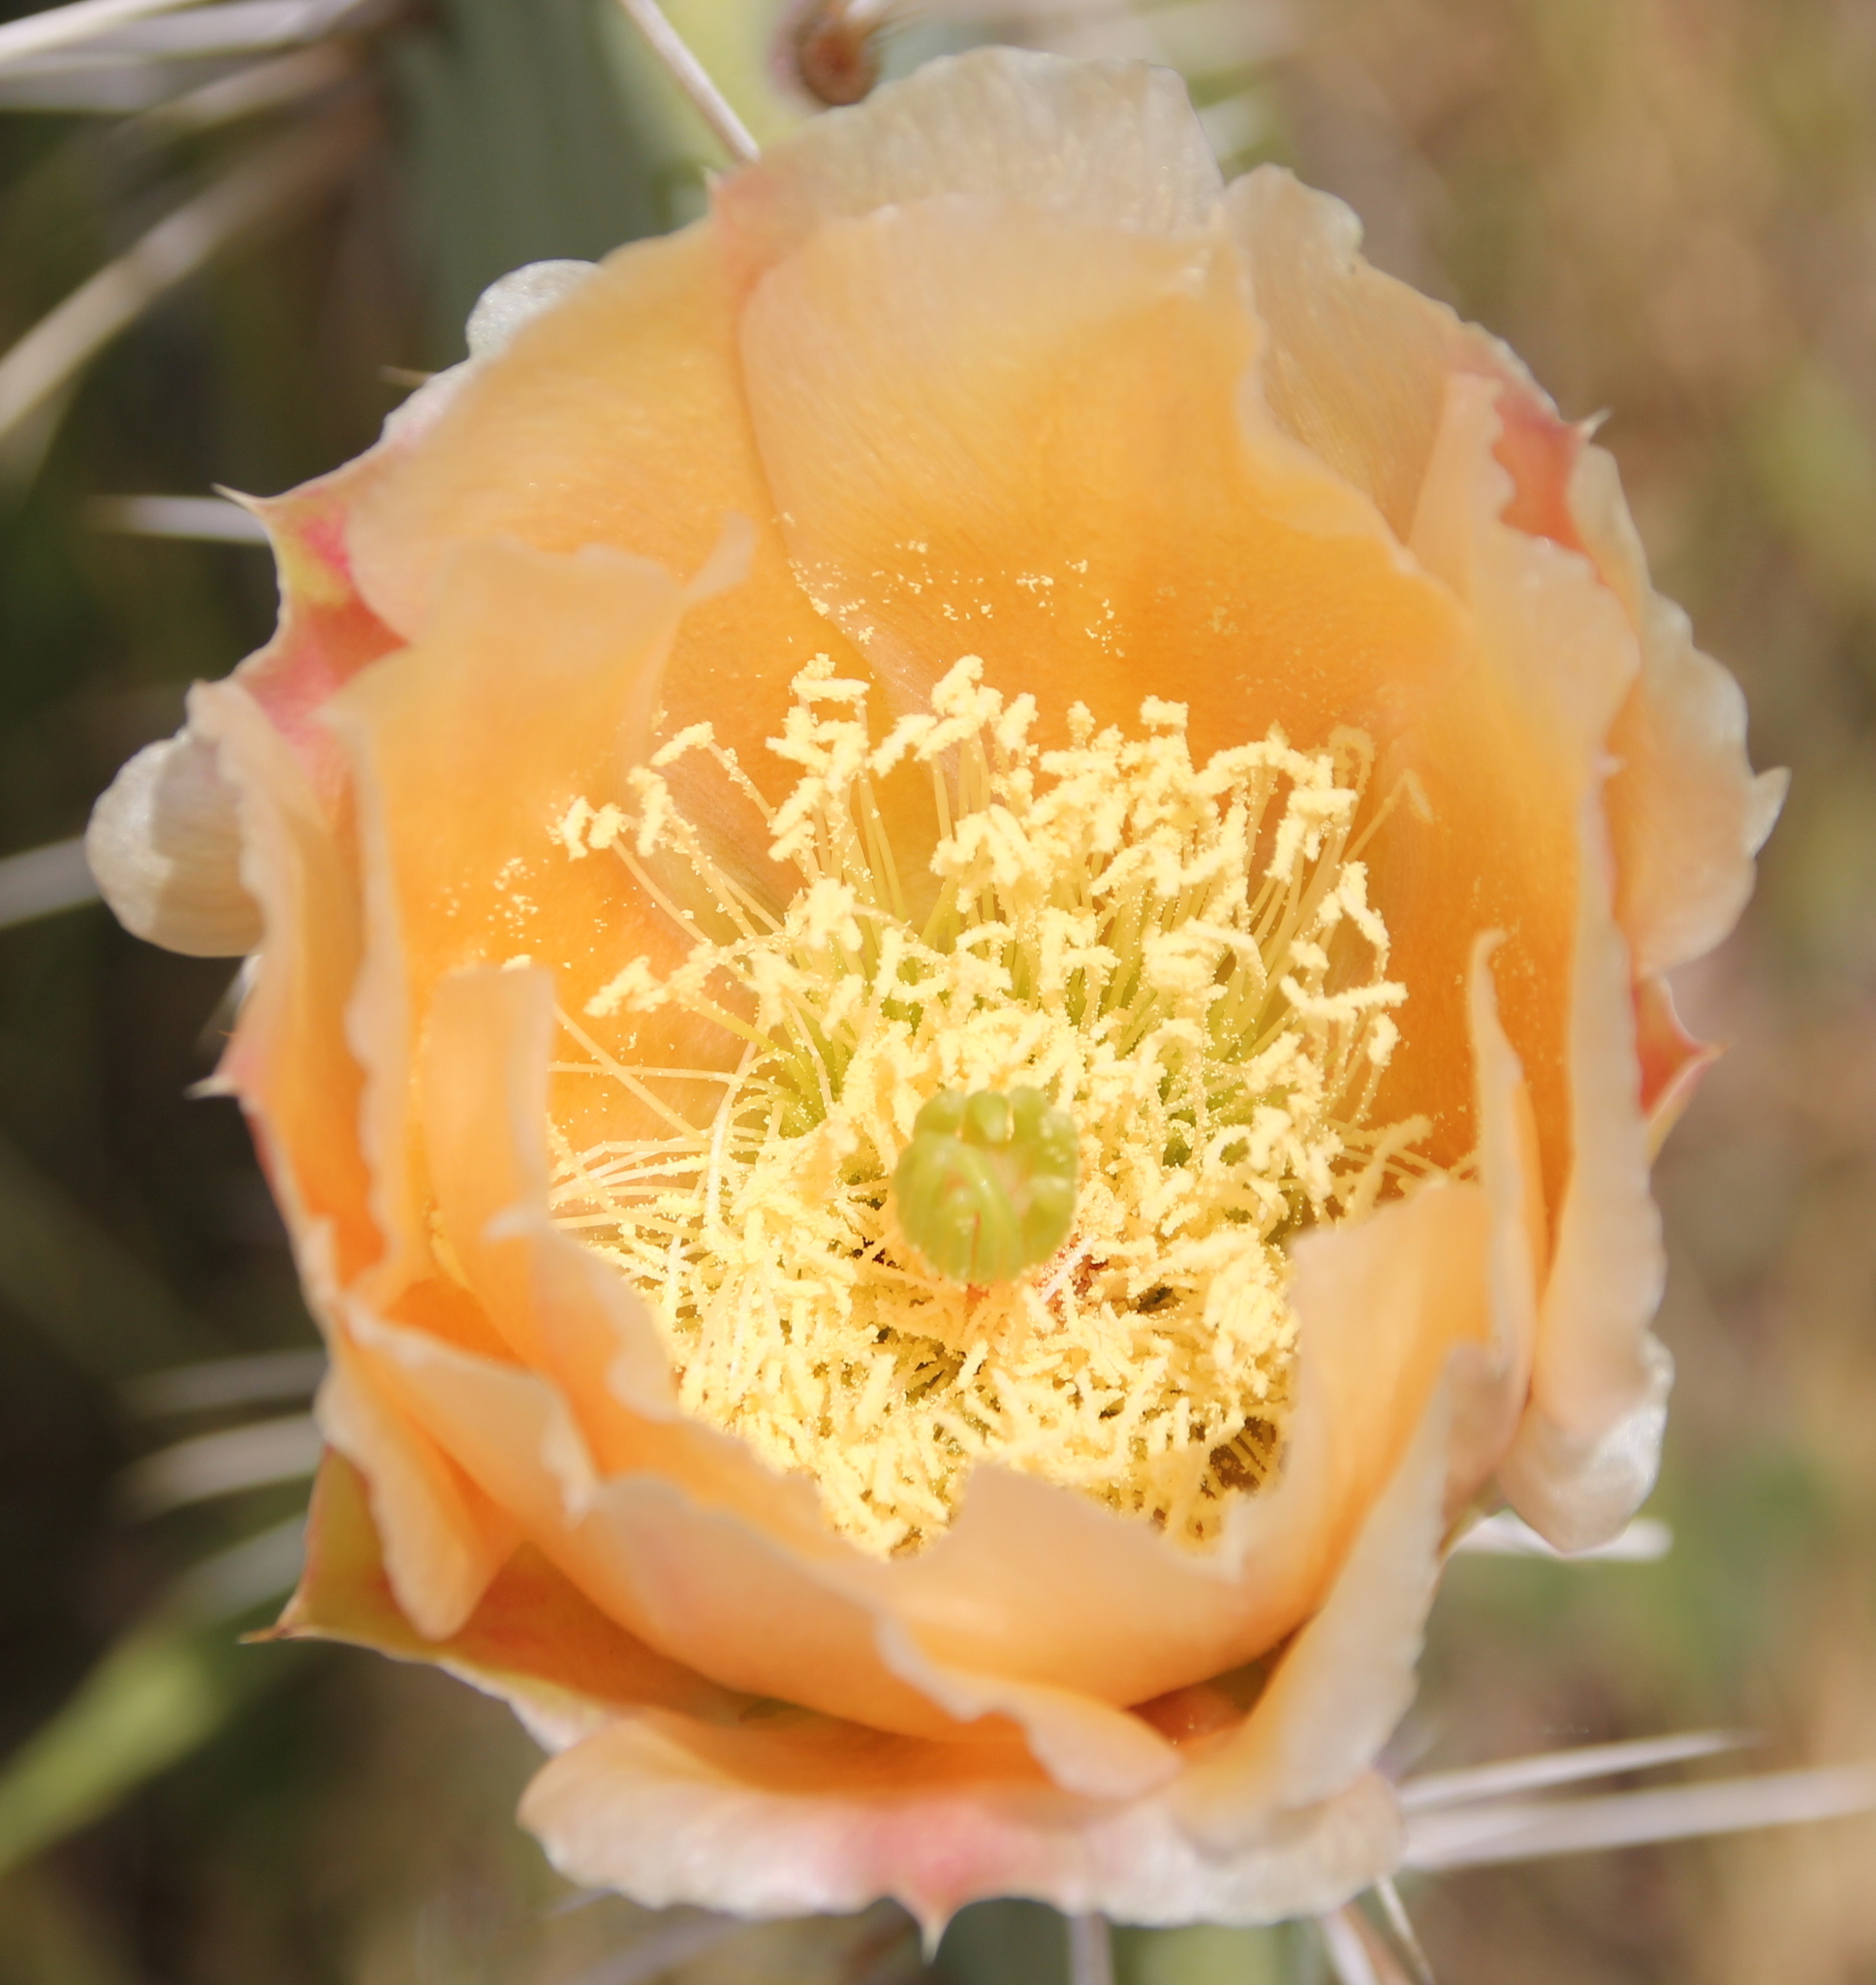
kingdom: Plantae
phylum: Tracheophyta
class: Magnoliopsida
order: Caryophyllales
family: Cactaceae
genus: Opuntia
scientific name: Opuntia littoralis
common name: Coastal prickly-pear
